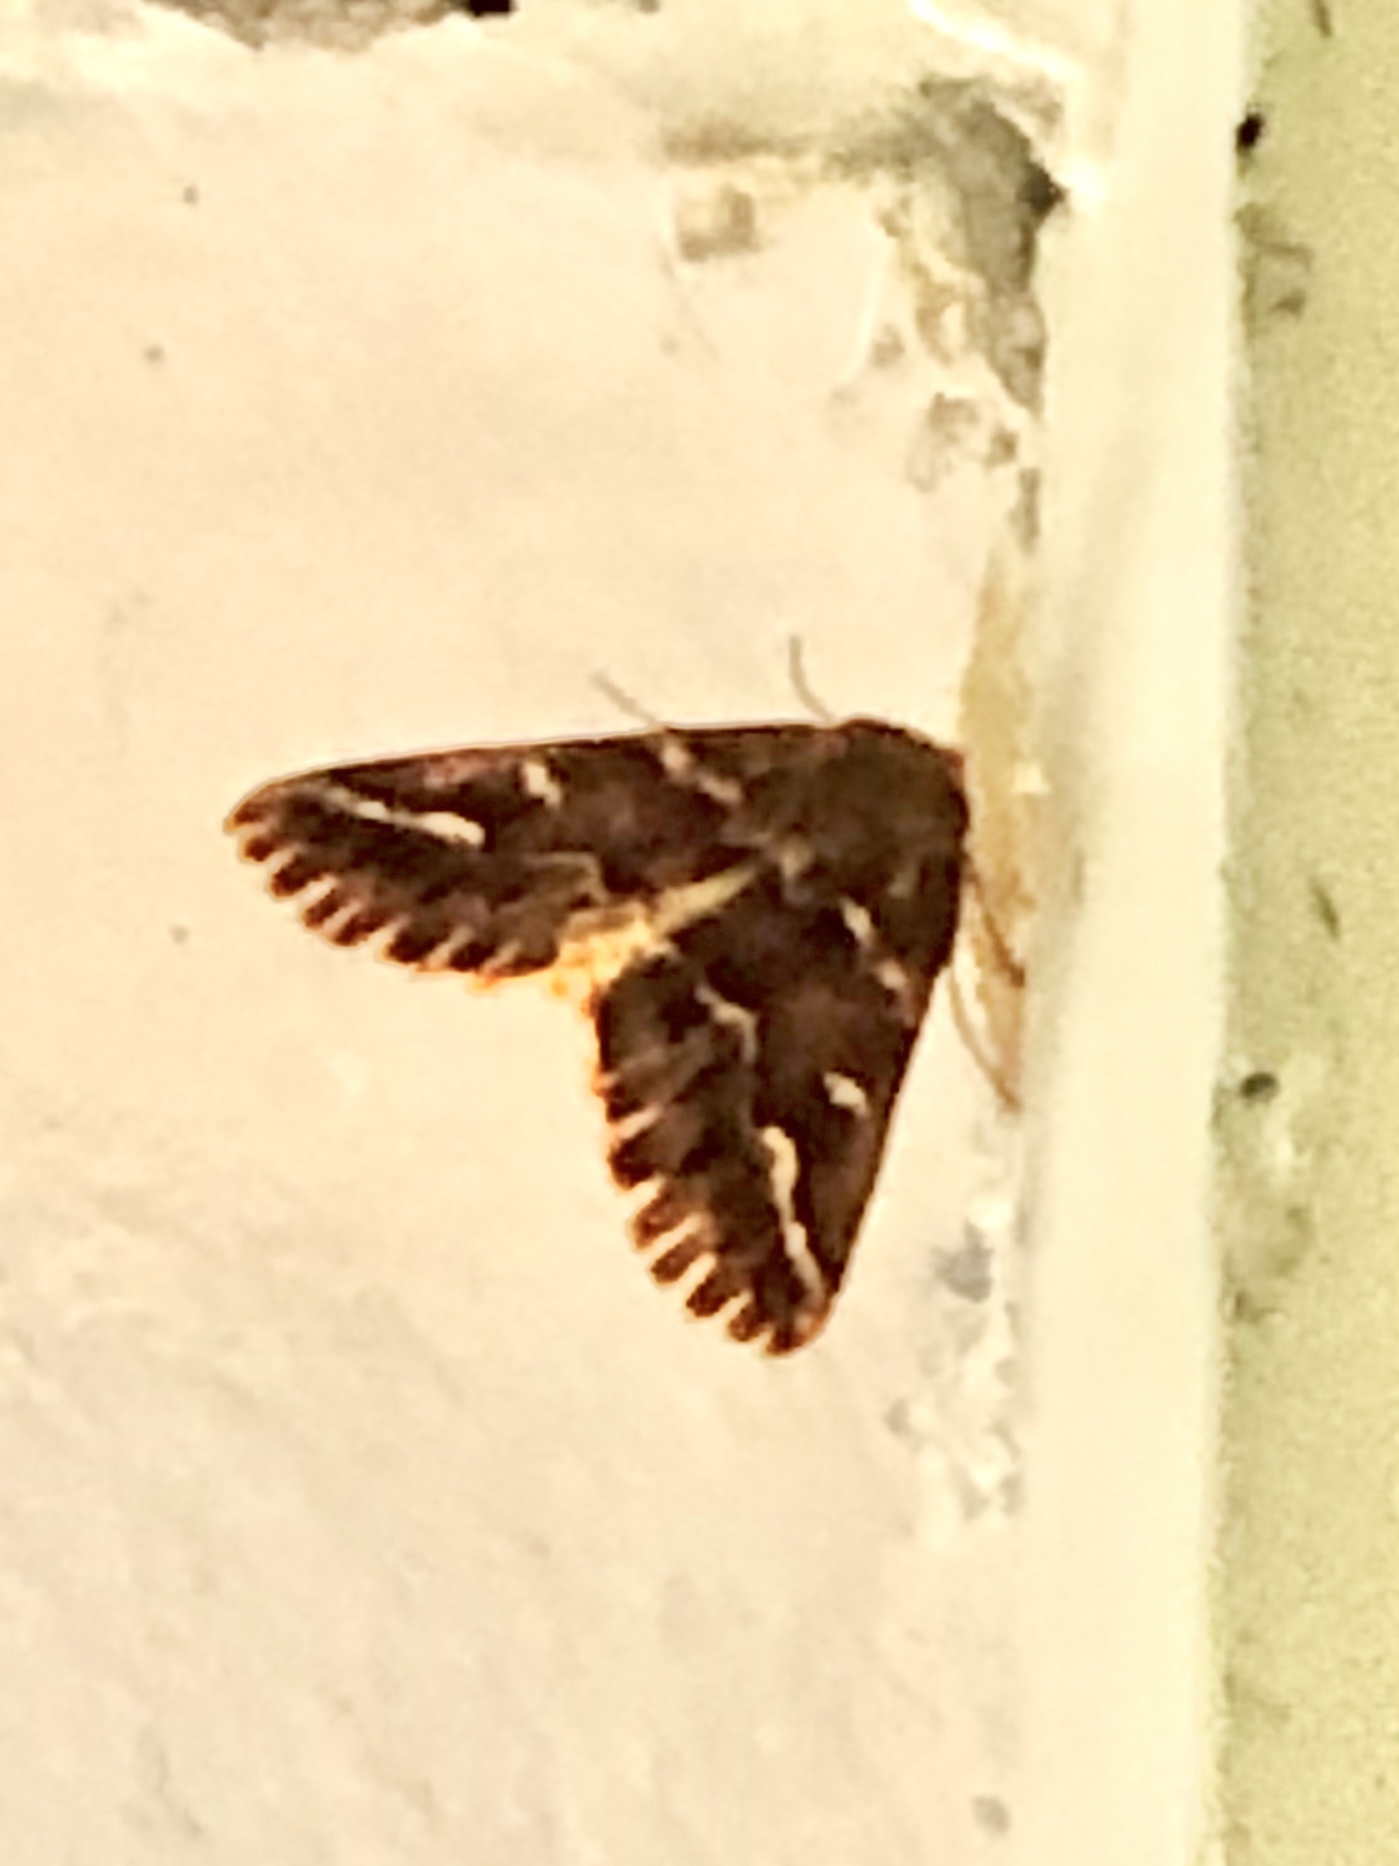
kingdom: Animalia
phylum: Arthropoda
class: Insecta
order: Lepidoptera
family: Geometridae
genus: Caripeta
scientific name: Caripeta aequaliaria
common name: Red girdle moth
